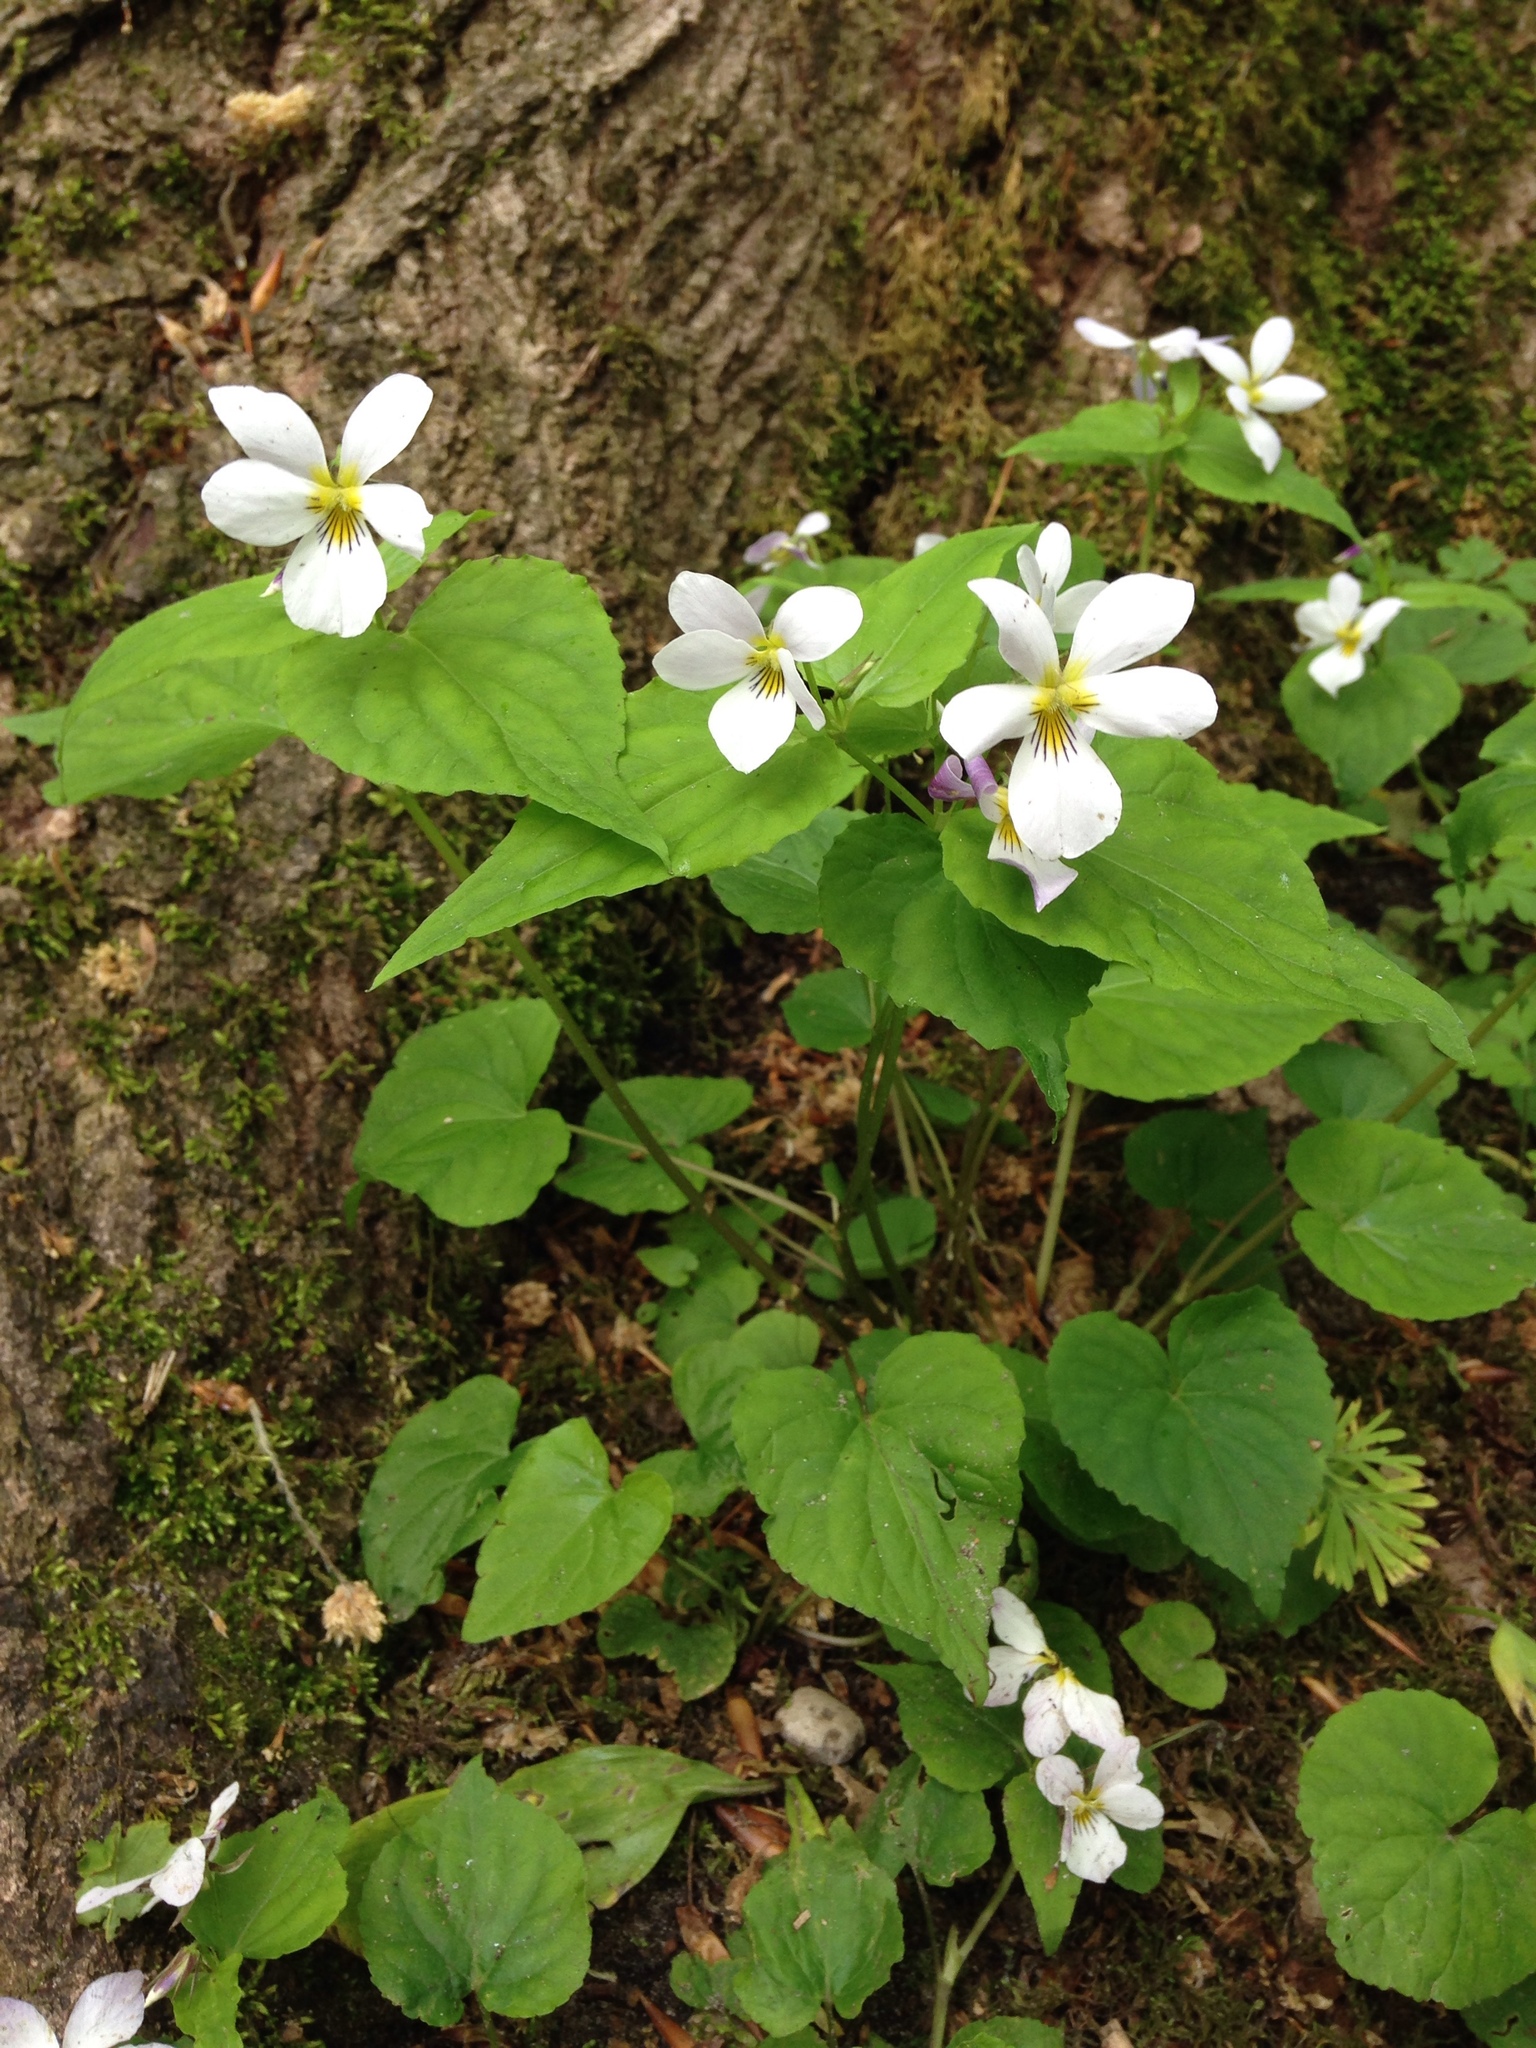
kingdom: Plantae
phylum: Tracheophyta
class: Magnoliopsida
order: Malpighiales
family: Violaceae
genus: Viola
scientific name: Viola canadensis
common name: Canada violet
